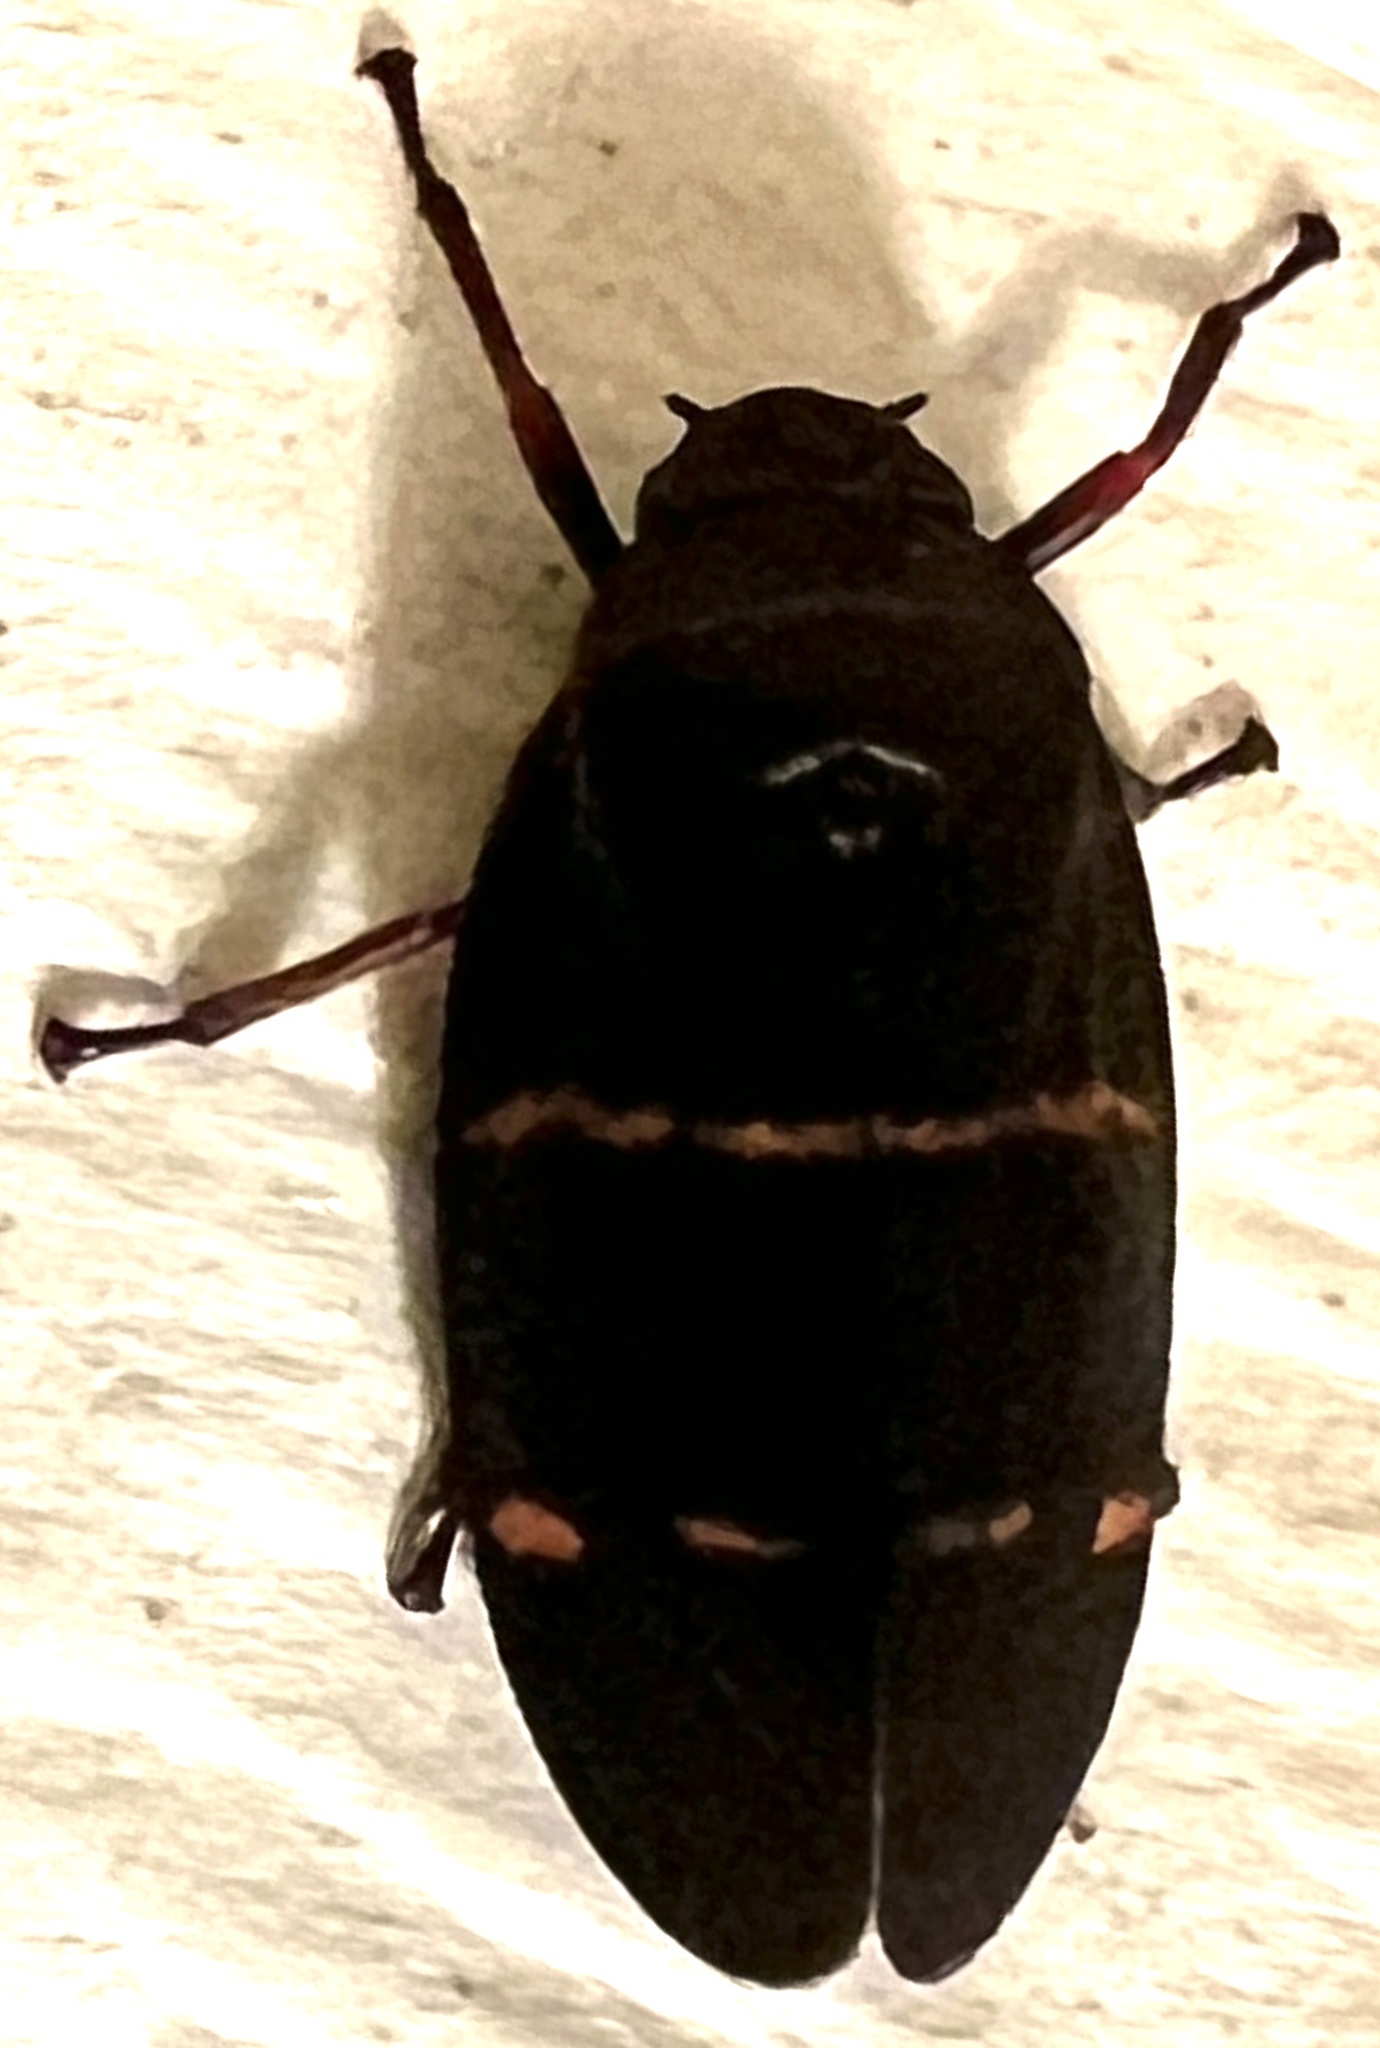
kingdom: Animalia
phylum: Arthropoda
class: Insecta
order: Hemiptera
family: Cercopidae
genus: Prosapia
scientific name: Prosapia bicincta
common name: Twolined spittlebug
